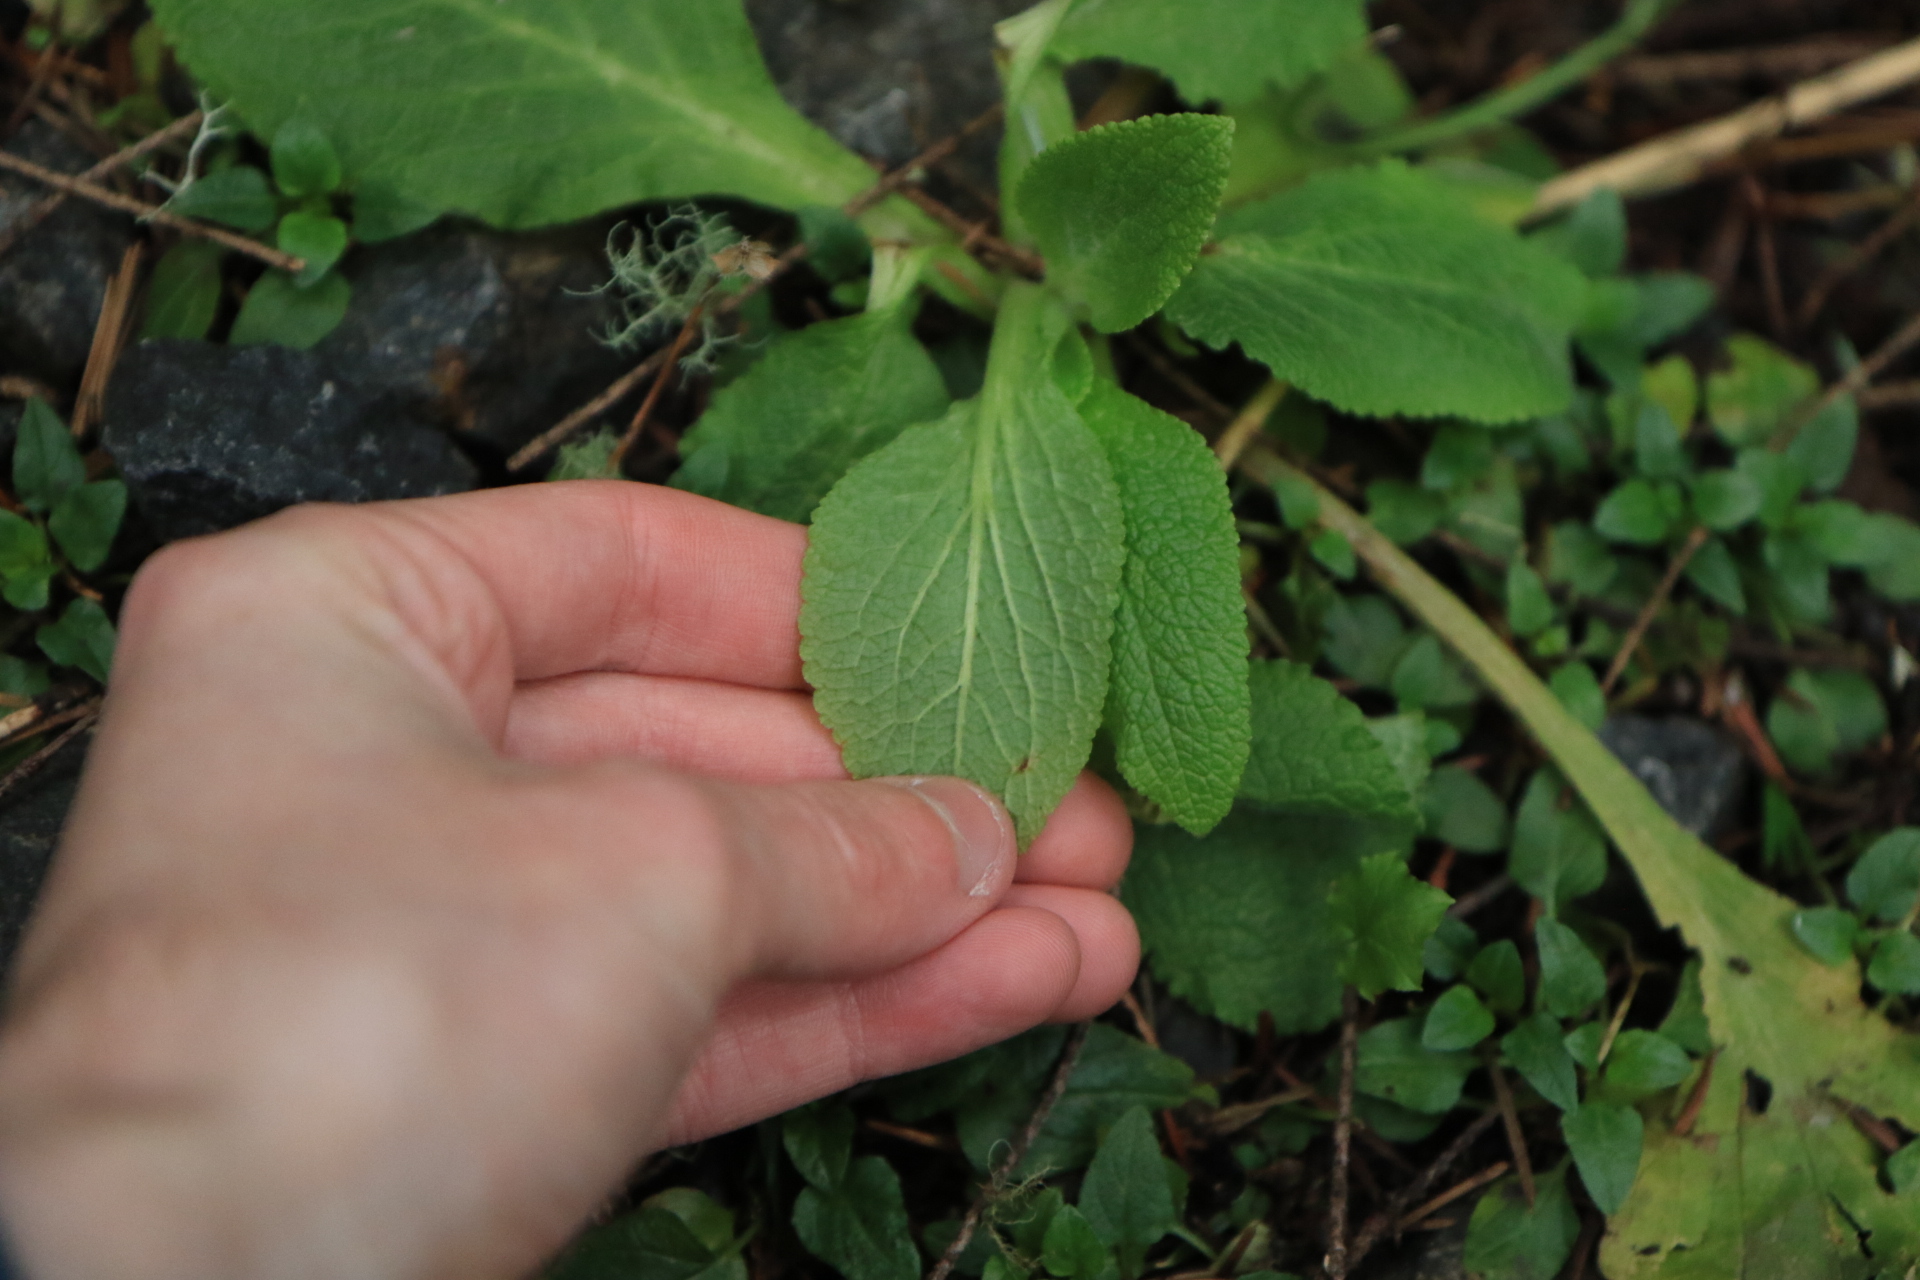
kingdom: Plantae
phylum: Tracheophyta
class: Magnoliopsida
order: Lamiales
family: Plantaginaceae
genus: Digitalis
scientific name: Digitalis purpurea
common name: Foxglove
